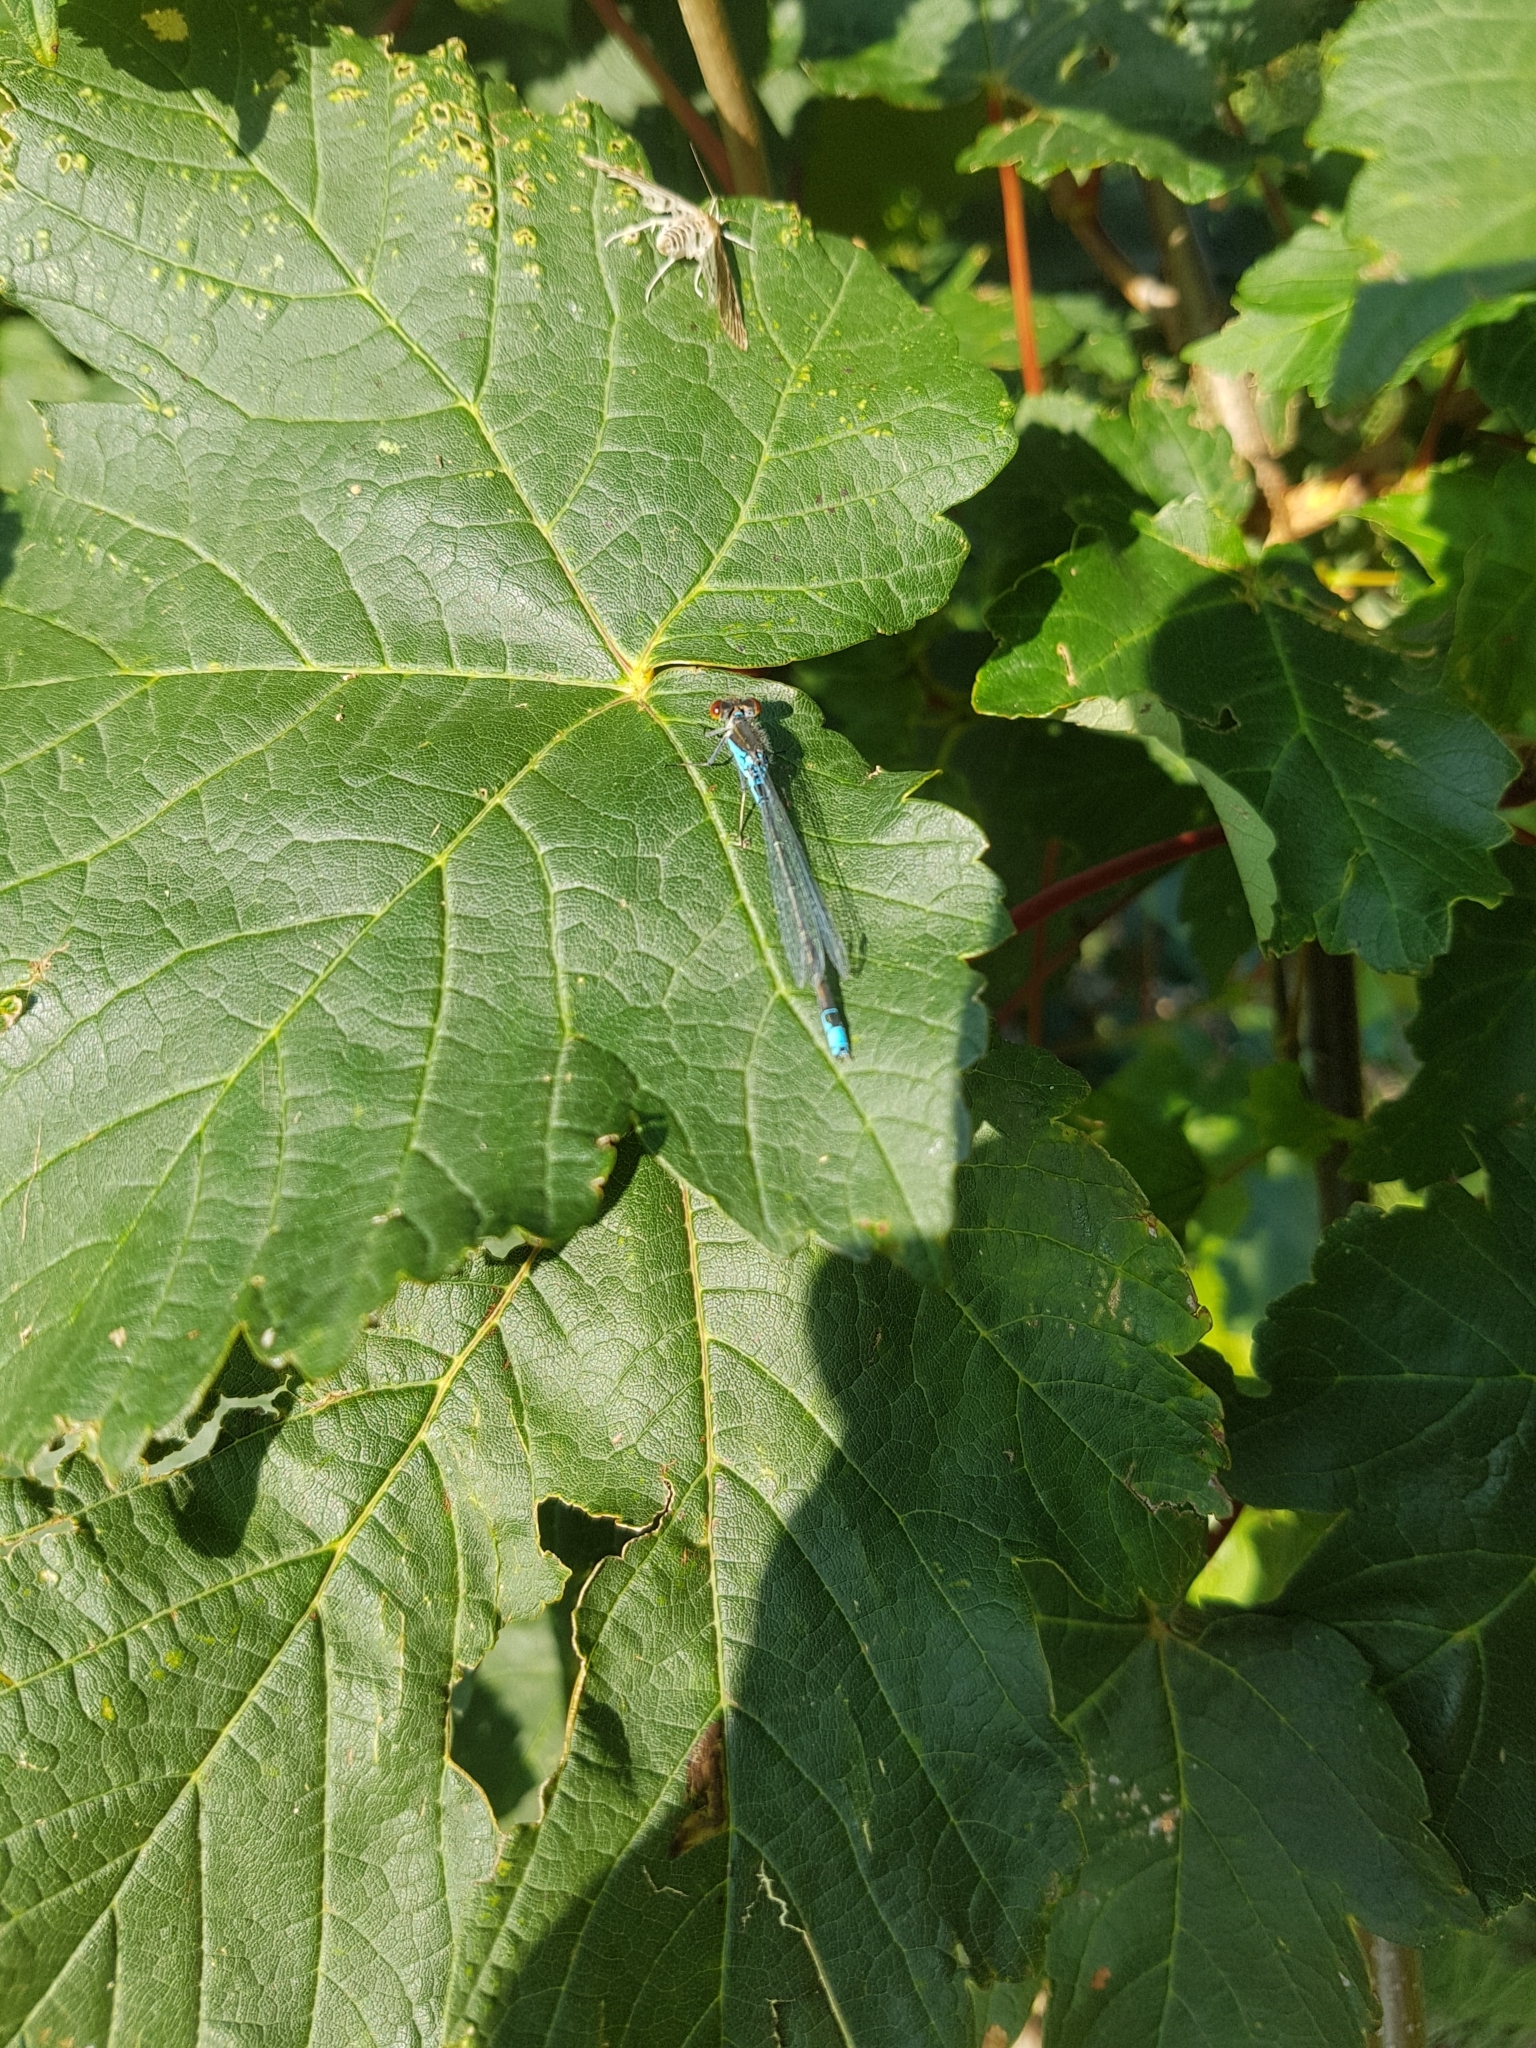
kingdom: Animalia
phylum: Arthropoda
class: Insecta
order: Odonata
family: Coenagrionidae
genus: Erythromma
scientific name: Erythromma viridulum
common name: Small red-eyed damselfly
